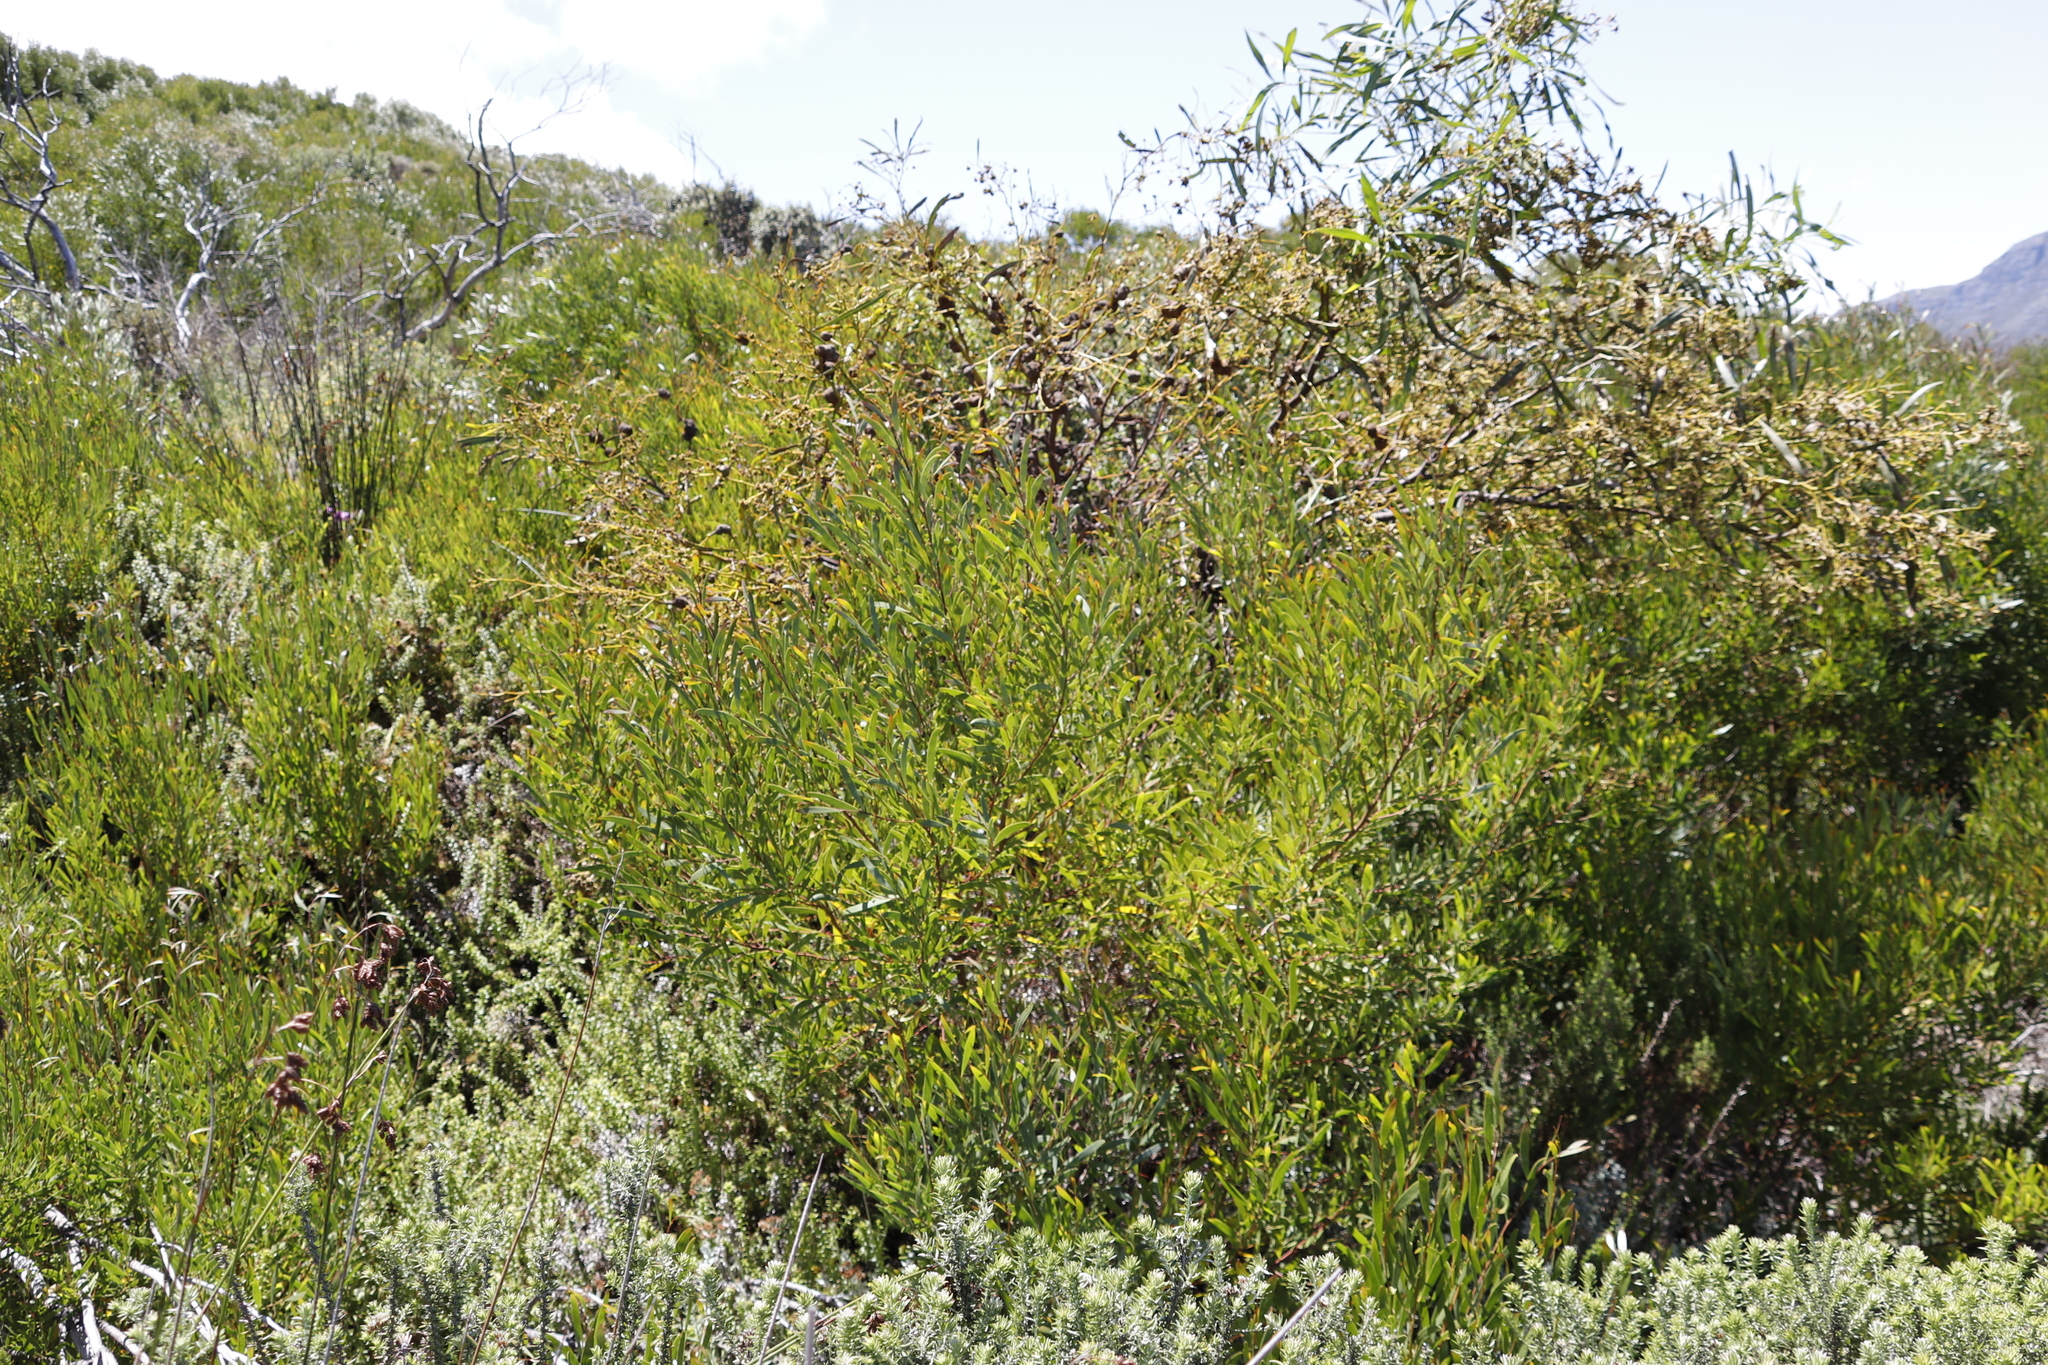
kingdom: Plantae
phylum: Tracheophyta
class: Magnoliopsida
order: Fabales
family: Fabaceae
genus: Acacia
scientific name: Acacia cyclops
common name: Coastal wattle
